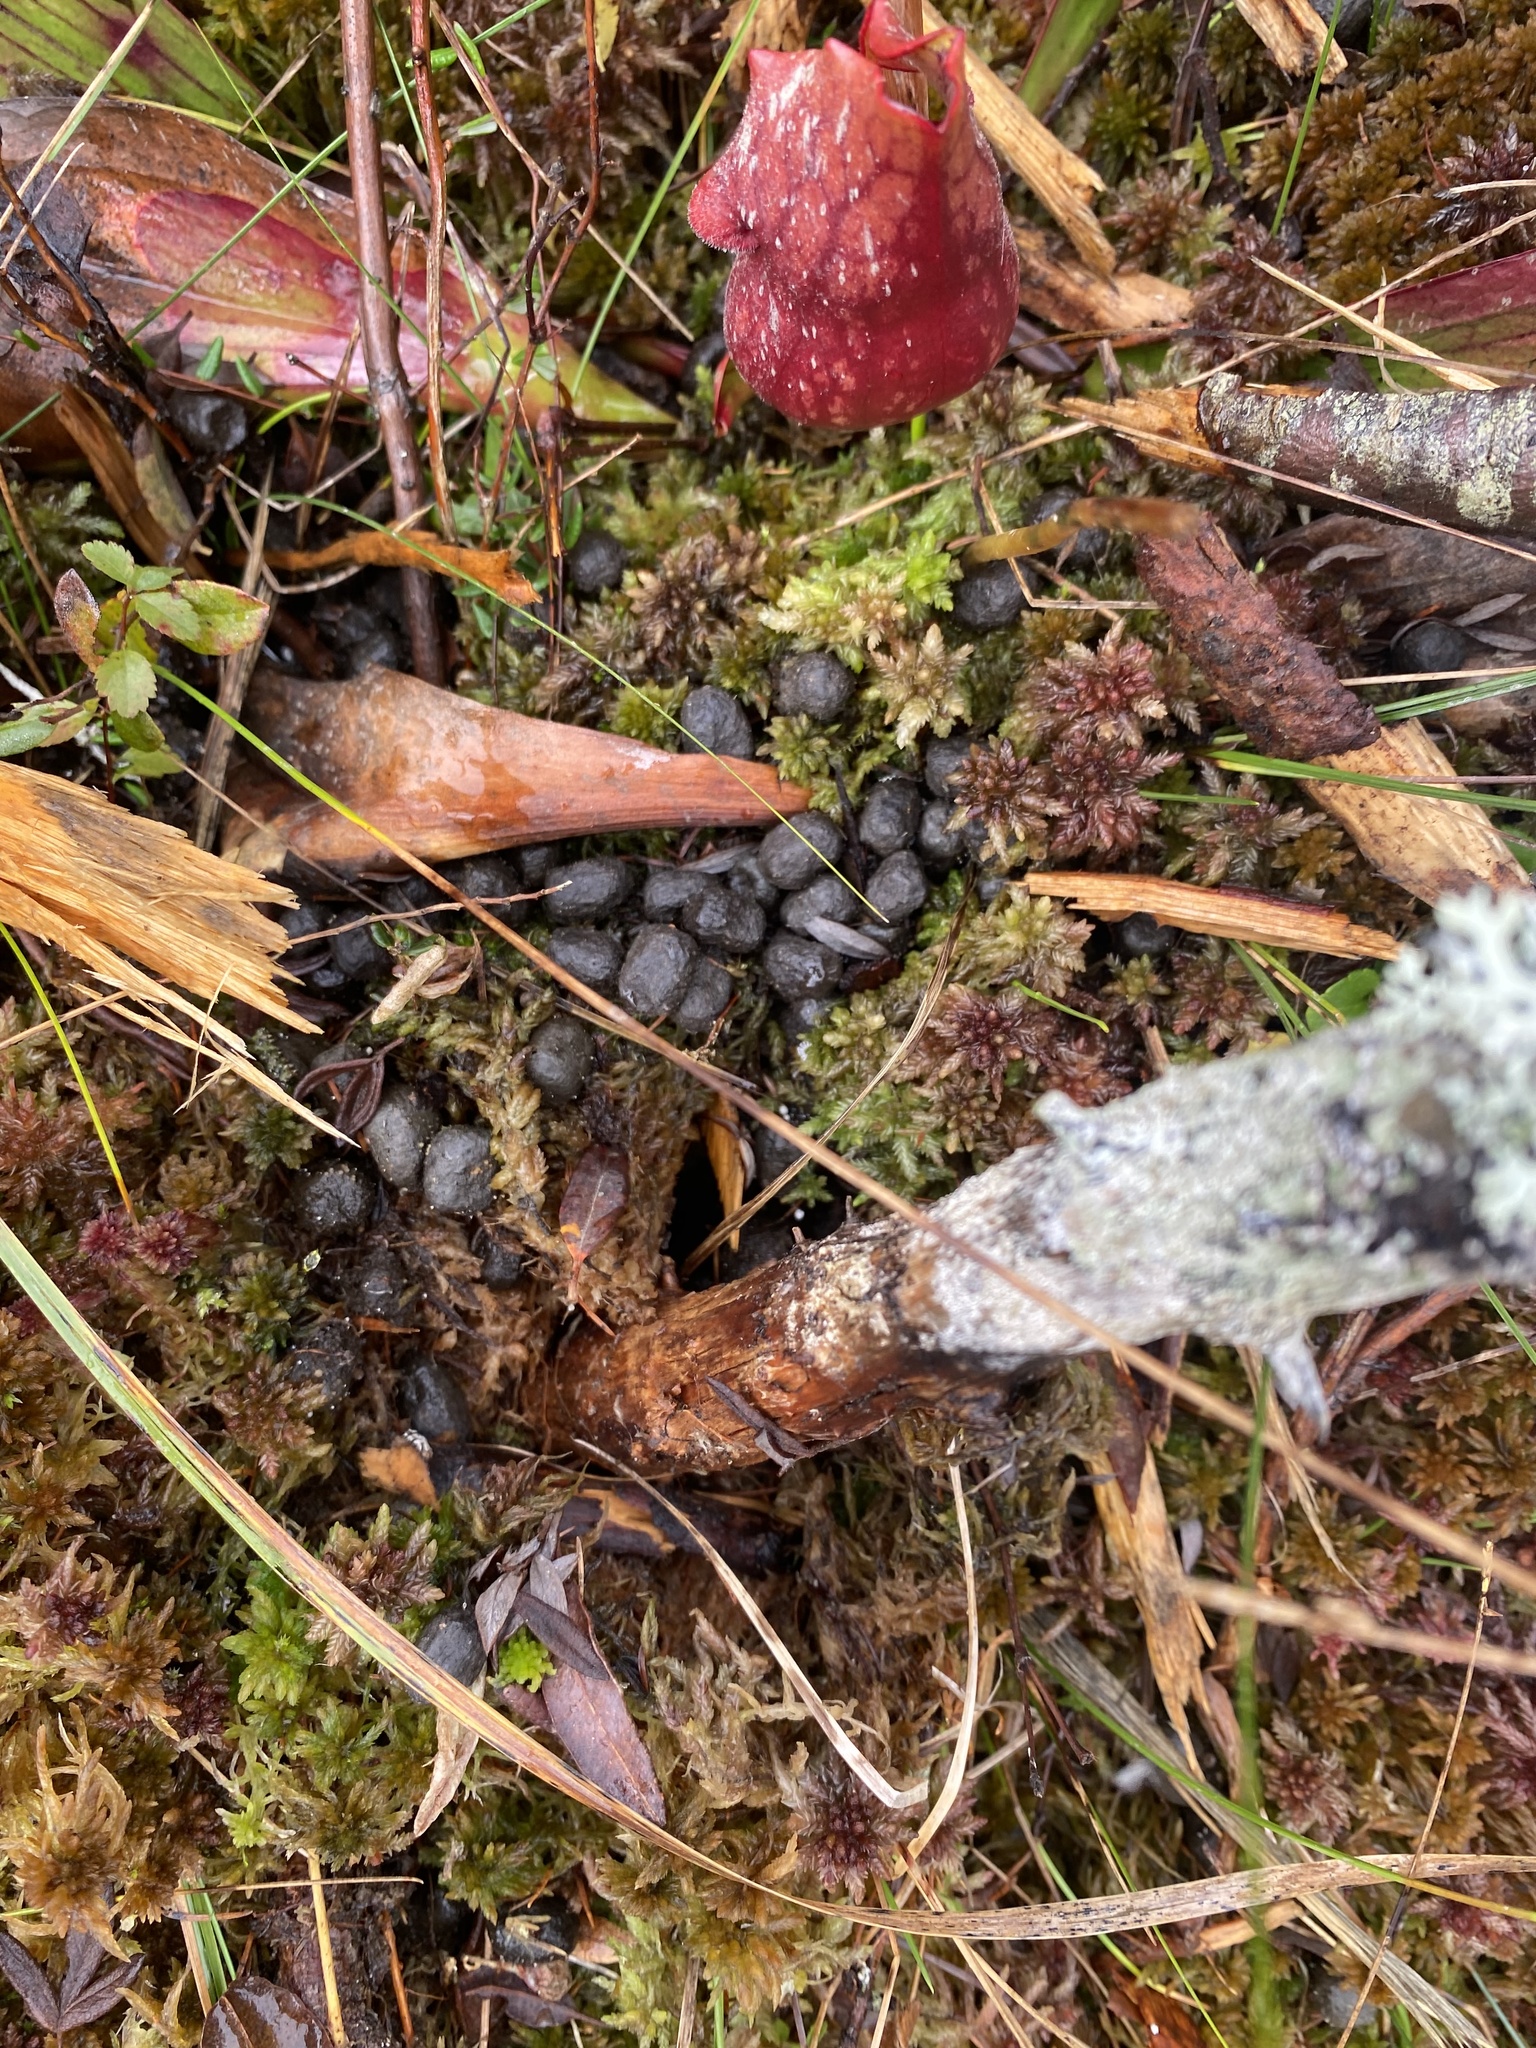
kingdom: Animalia
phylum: Chordata
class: Mammalia
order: Artiodactyla
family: Cervidae
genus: Odocoileus
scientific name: Odocoileus virginianus
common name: White-tailed deer
